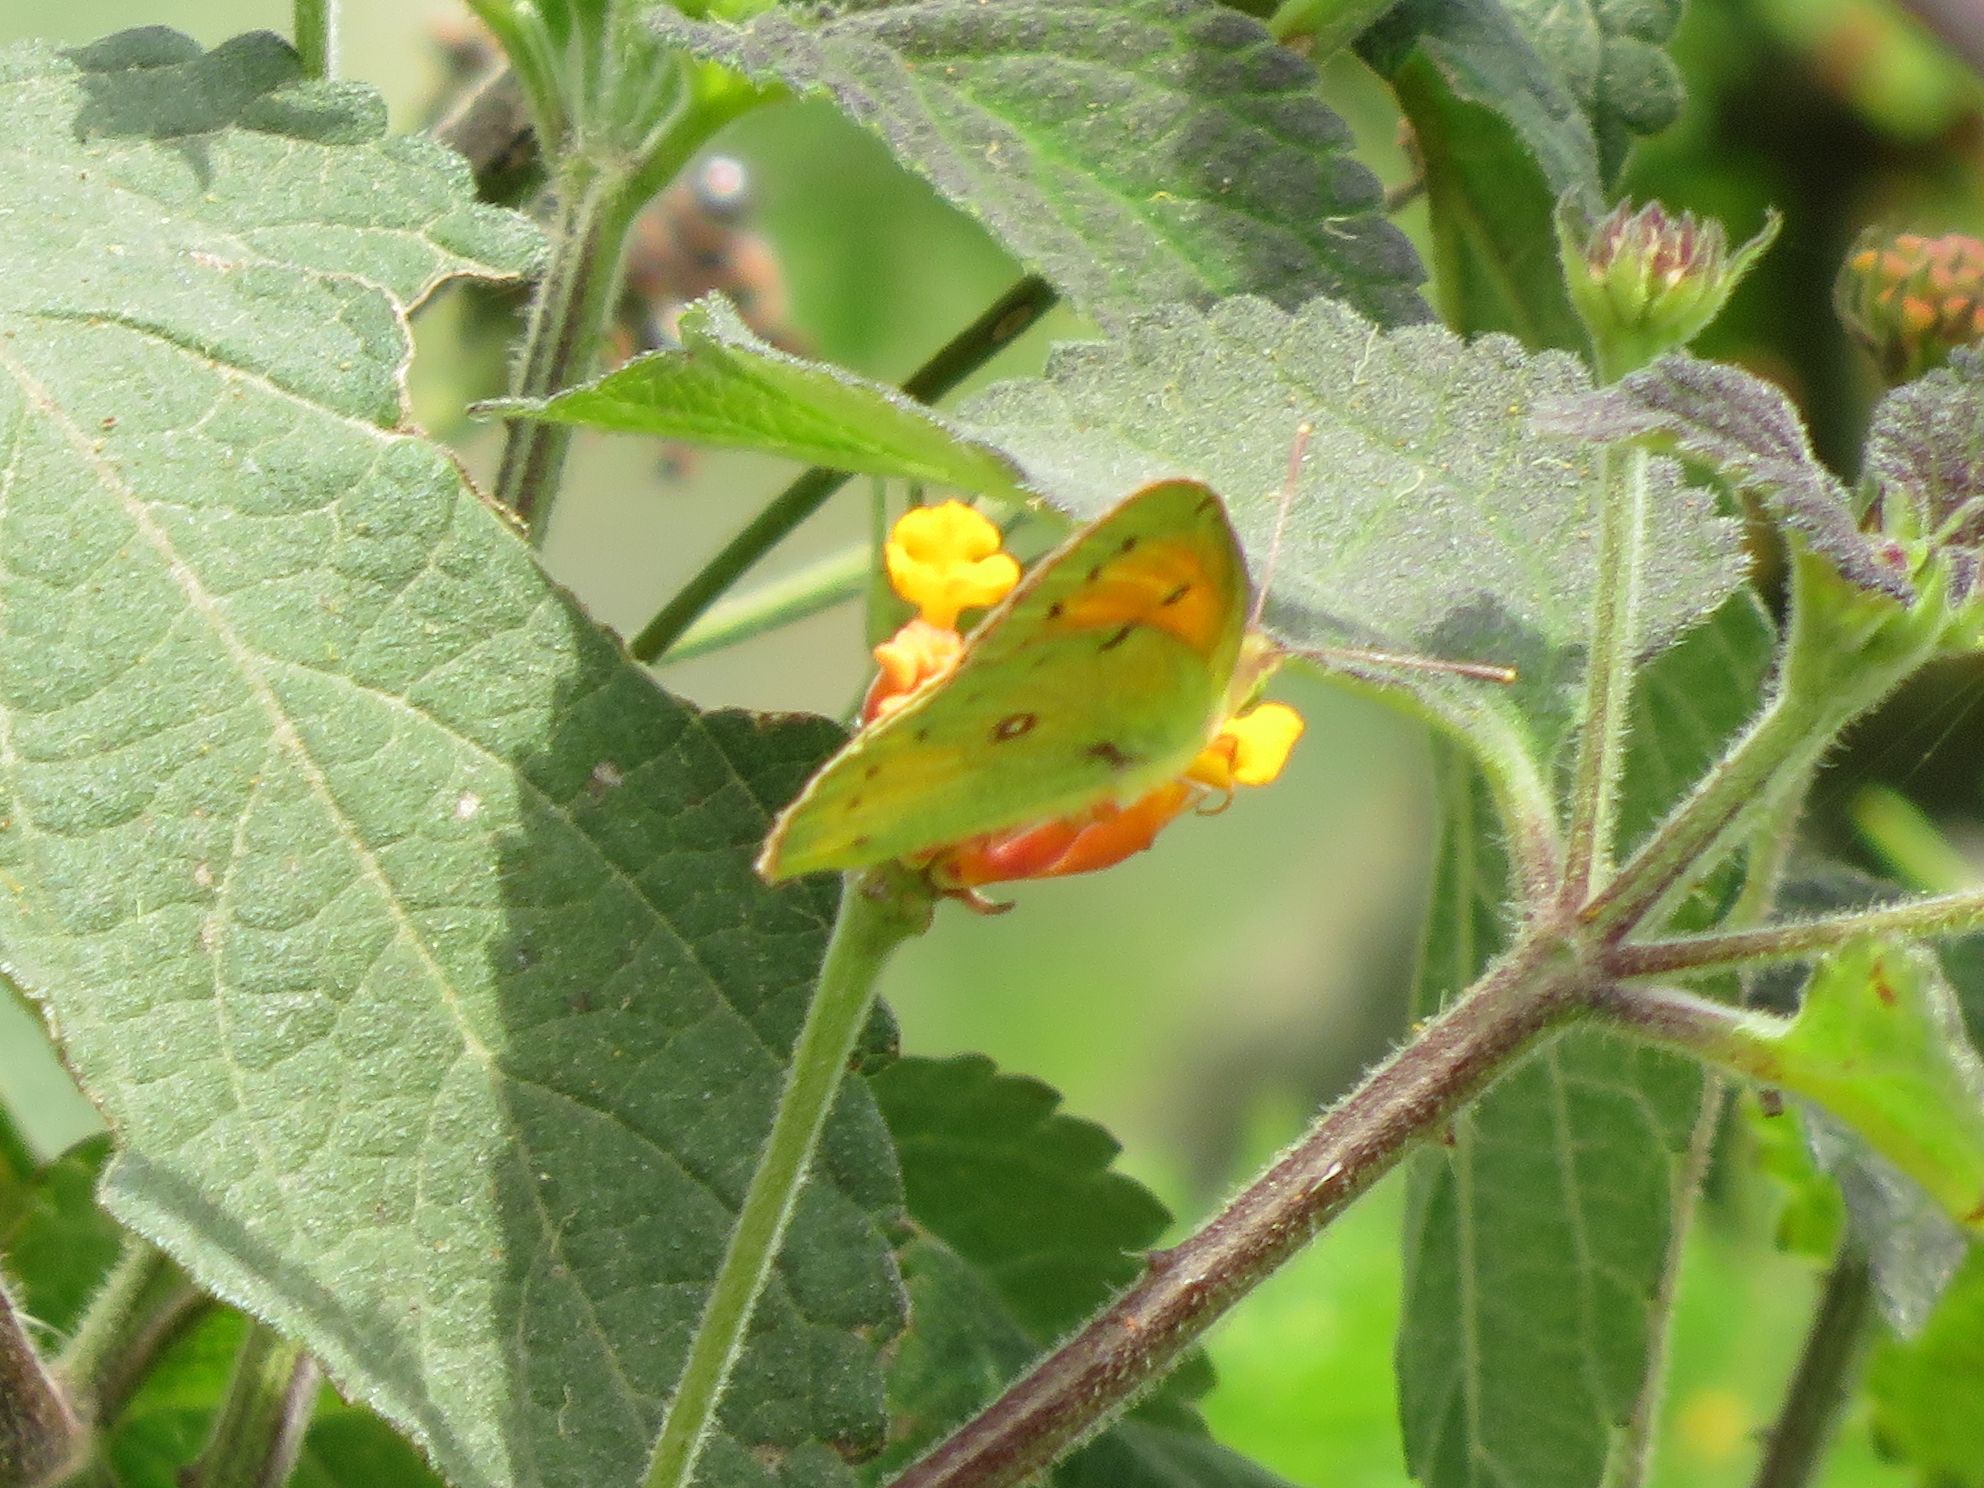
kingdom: Animalia
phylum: Arthropoda
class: Insecta
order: Lepidoptera
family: Pieridae
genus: Colias
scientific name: Colias lesbia
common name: Lesbia clouded yellow
